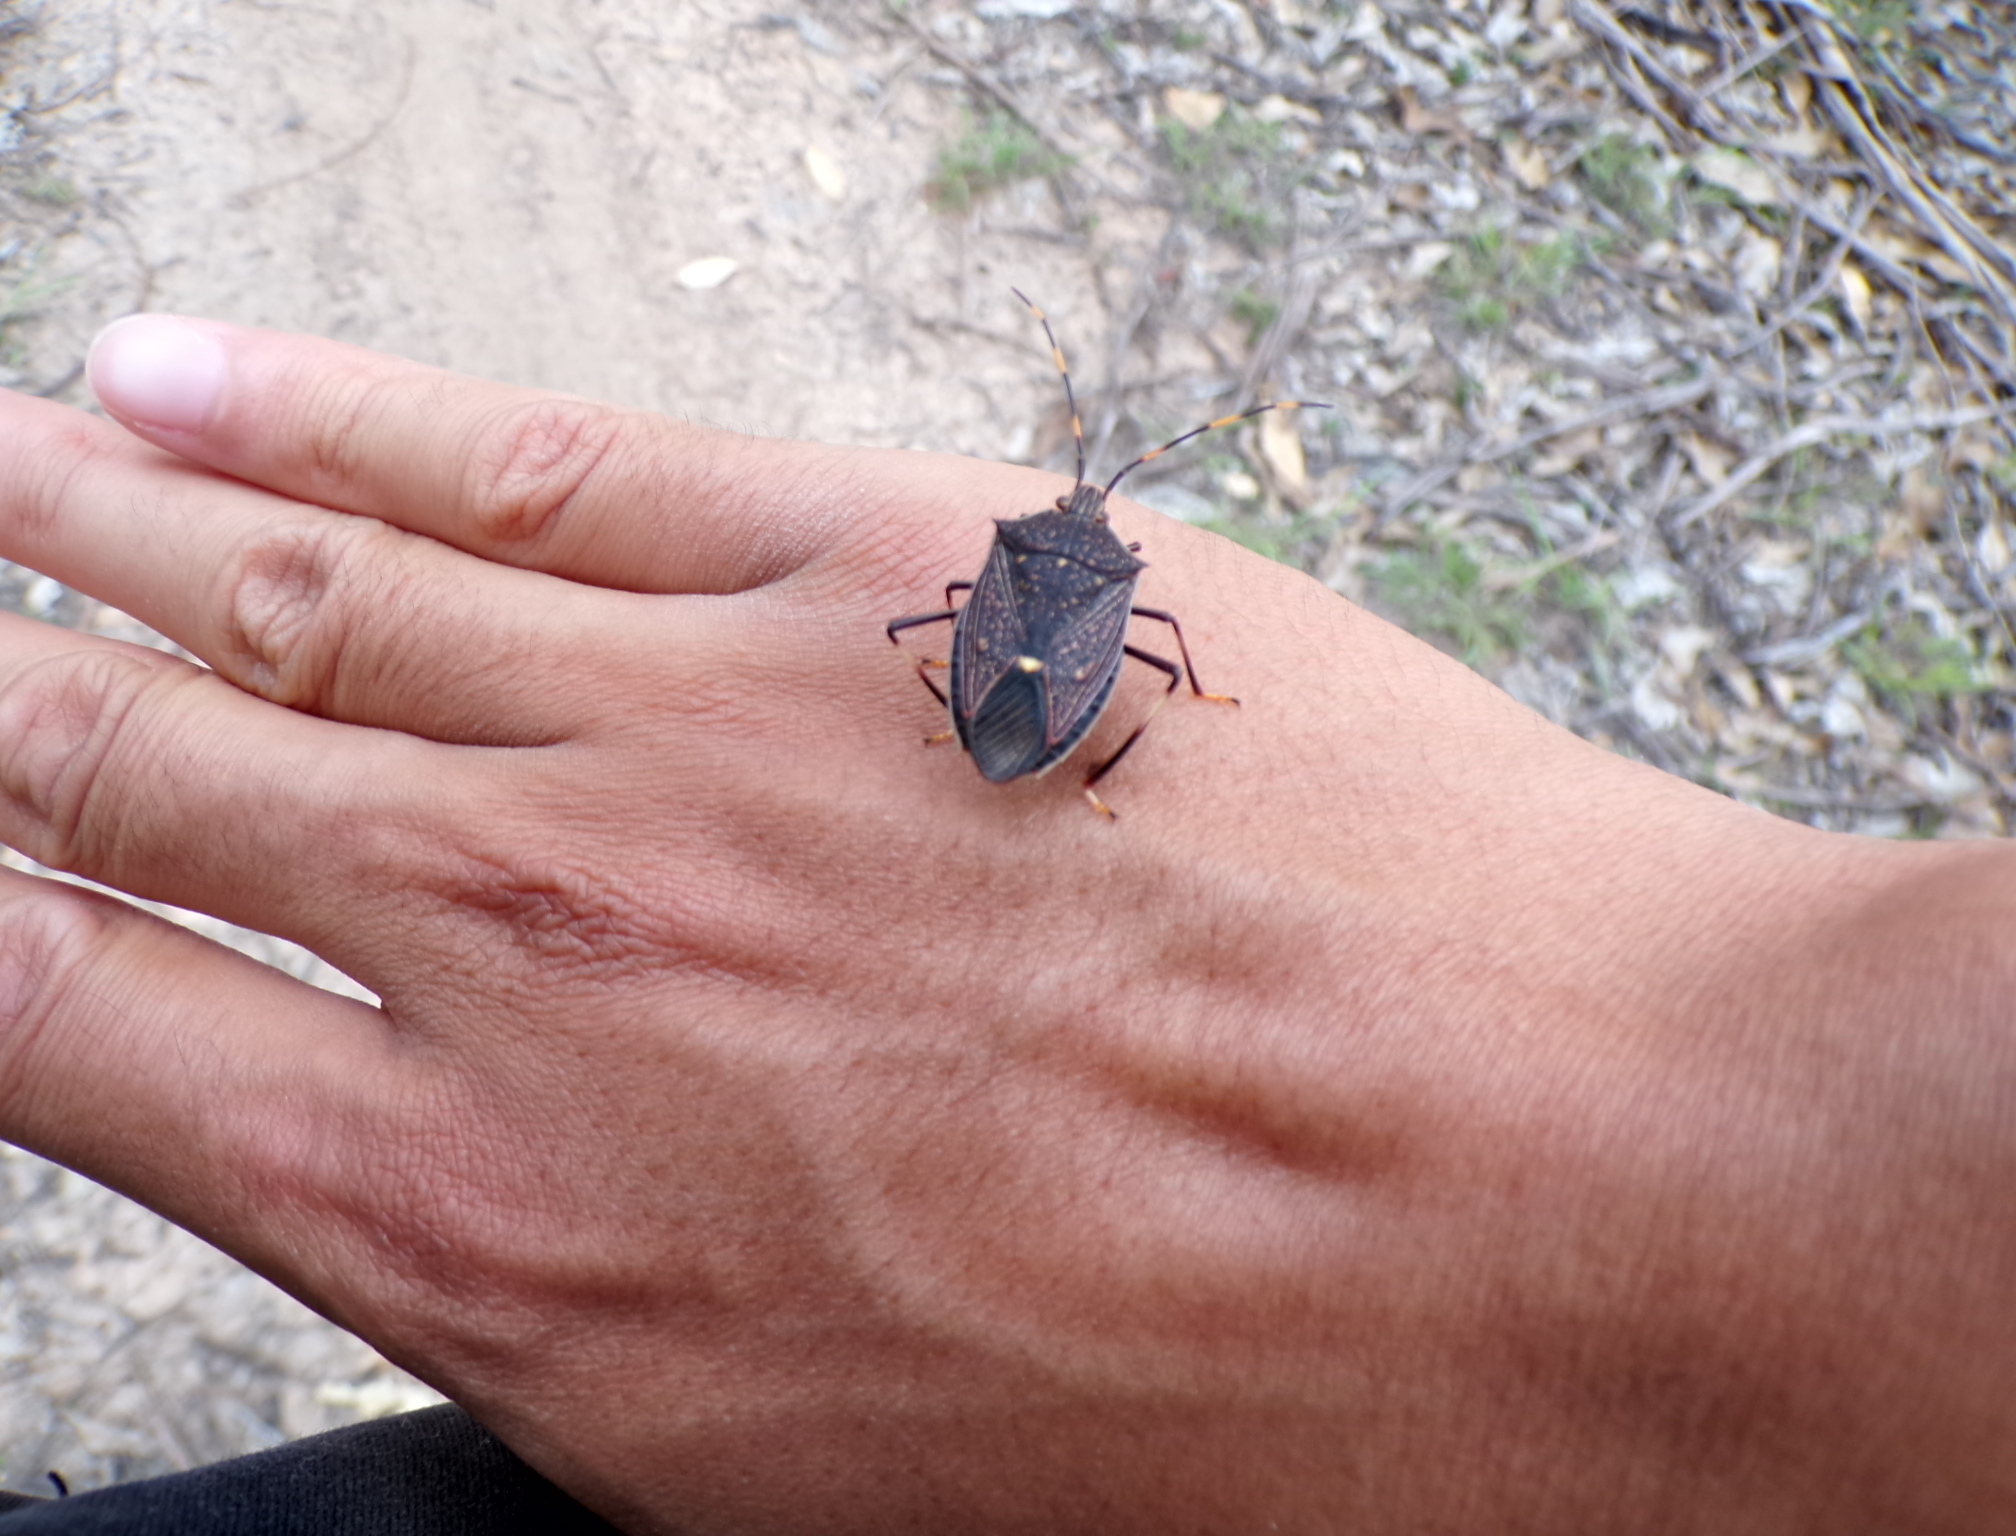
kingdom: Animalia
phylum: Arthropoda
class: Insecta
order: Hemiptera
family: Pentatomidae
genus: Poecilometis
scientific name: Poecilometis
